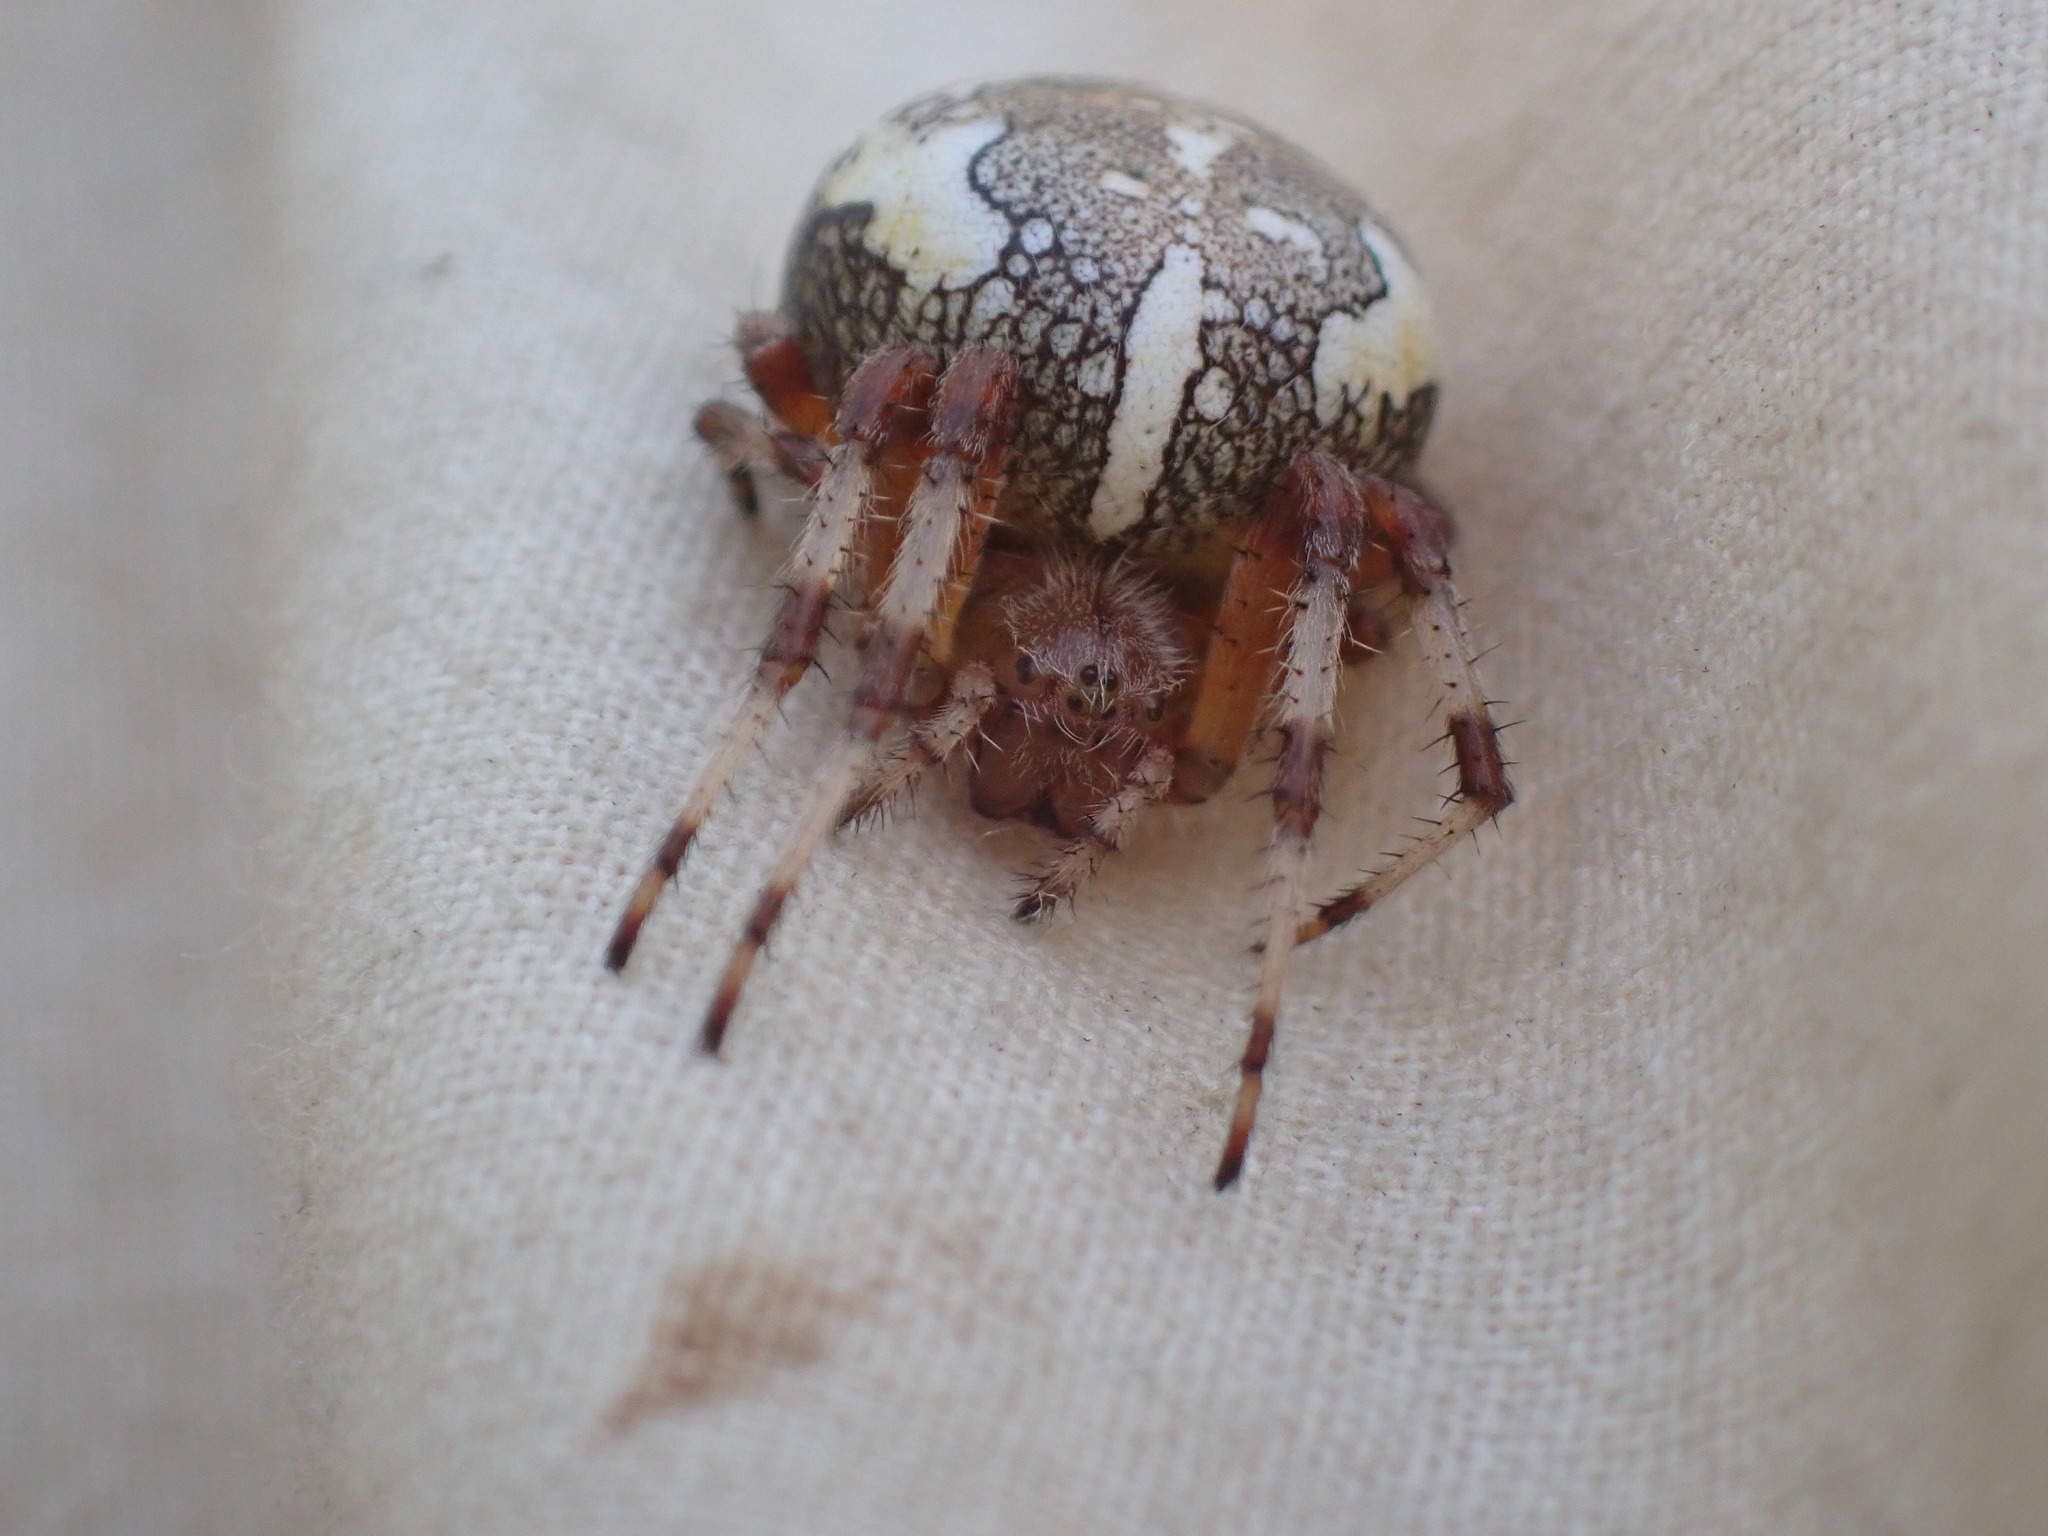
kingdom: Animalia
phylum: Arthropoda
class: Arachnida
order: Araneae
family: Araneidae
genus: Araneus
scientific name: Araneus marmoreus
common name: Marbled orbweaver
